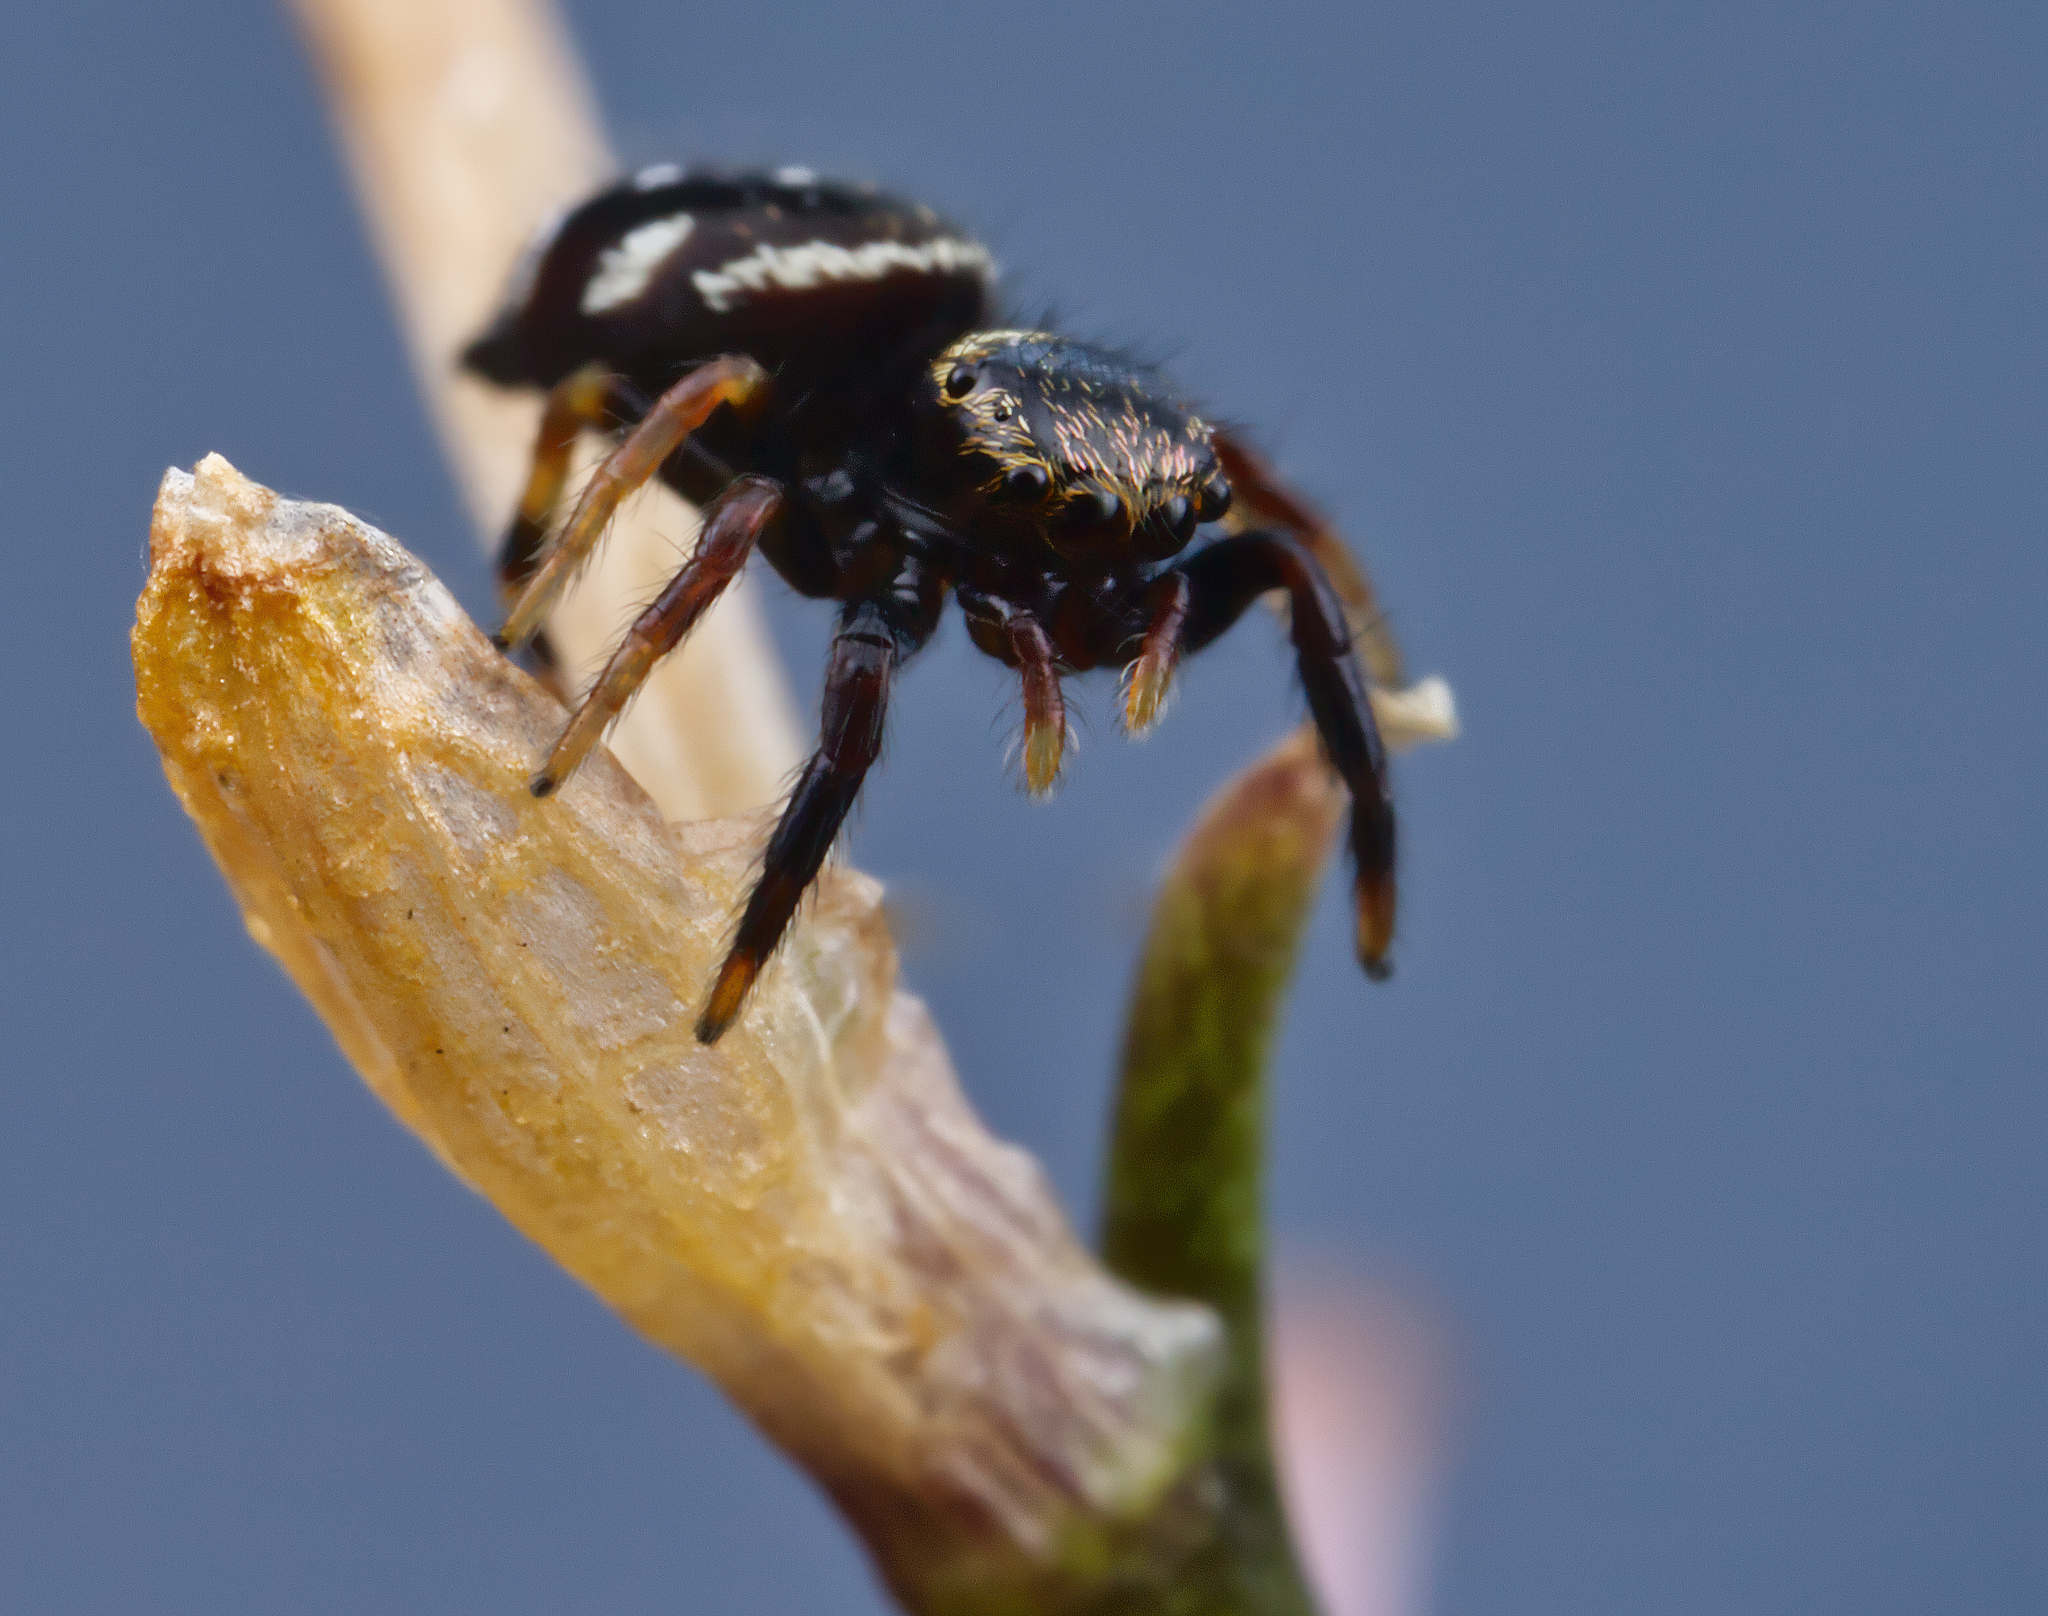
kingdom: Animalia
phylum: Arthropoda
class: Arachnida
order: Araneae
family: Salticidae
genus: Paraphidippus
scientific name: Paraphidippus aurantius
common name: Jumping spiders
